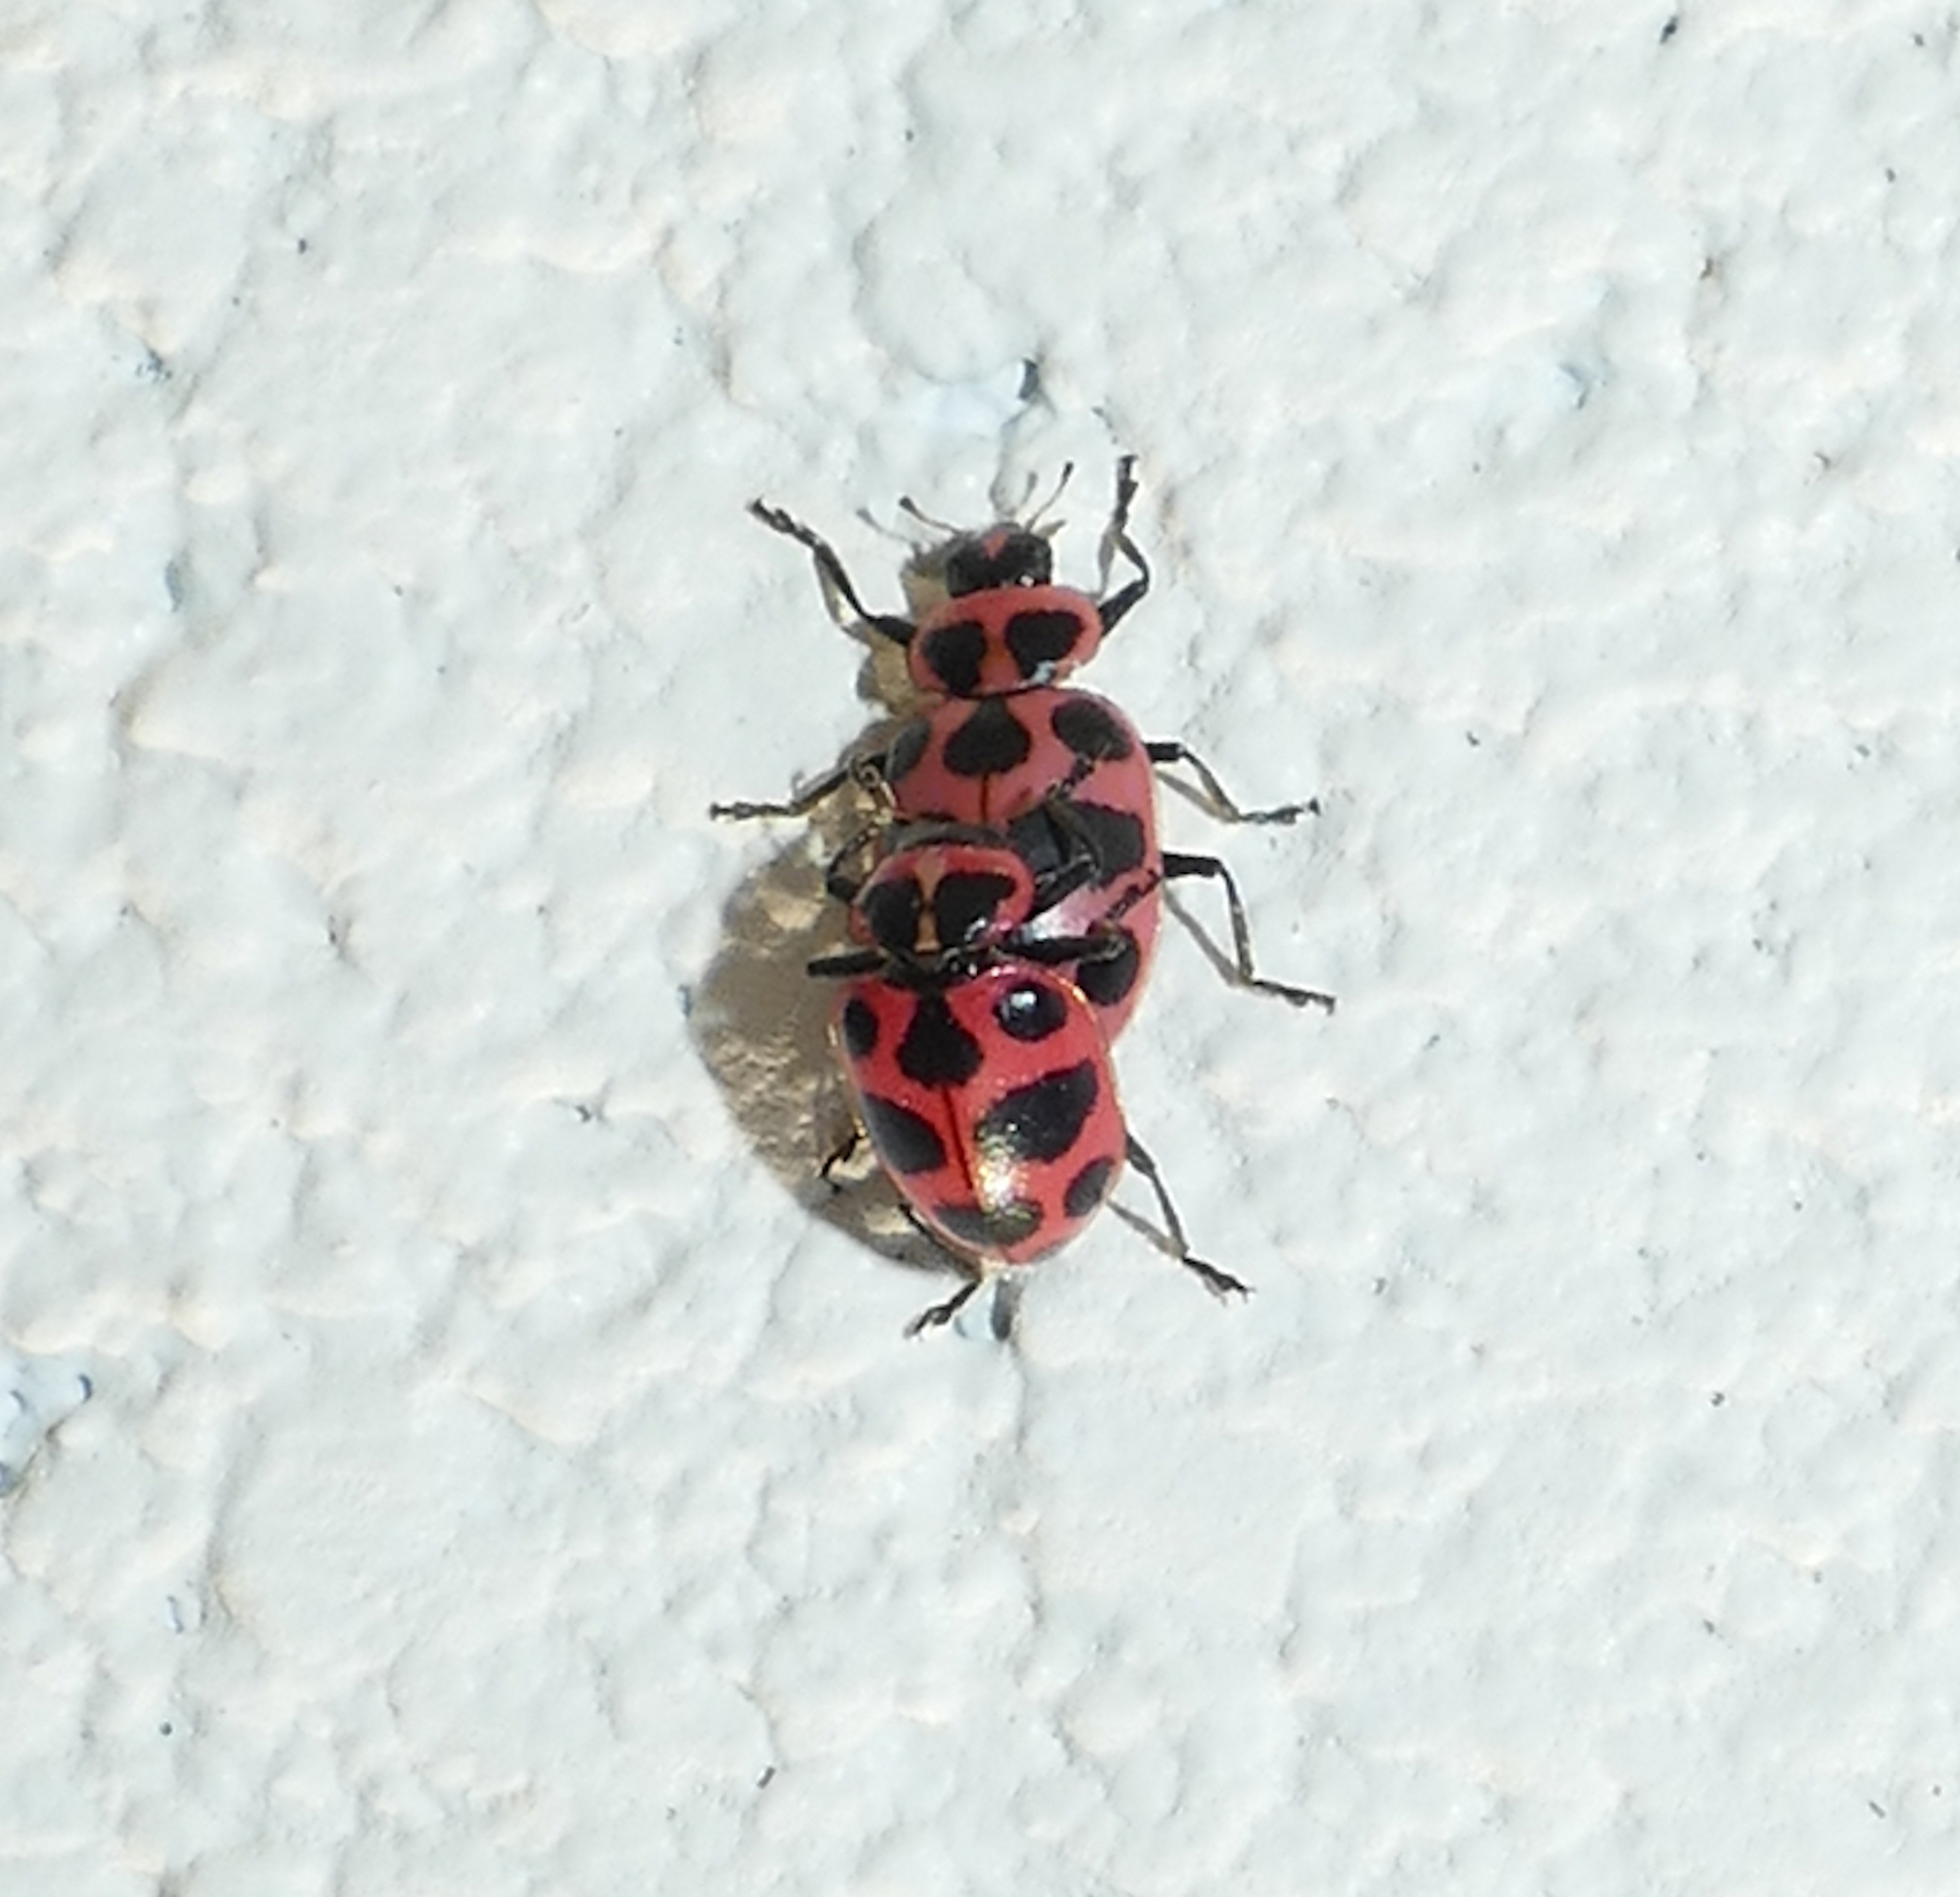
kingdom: Animalia
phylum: Arthropoda
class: Insecta
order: Coleoptera
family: Coccinellidae
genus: Coleomegilla
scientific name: Coleomegilla maculata
